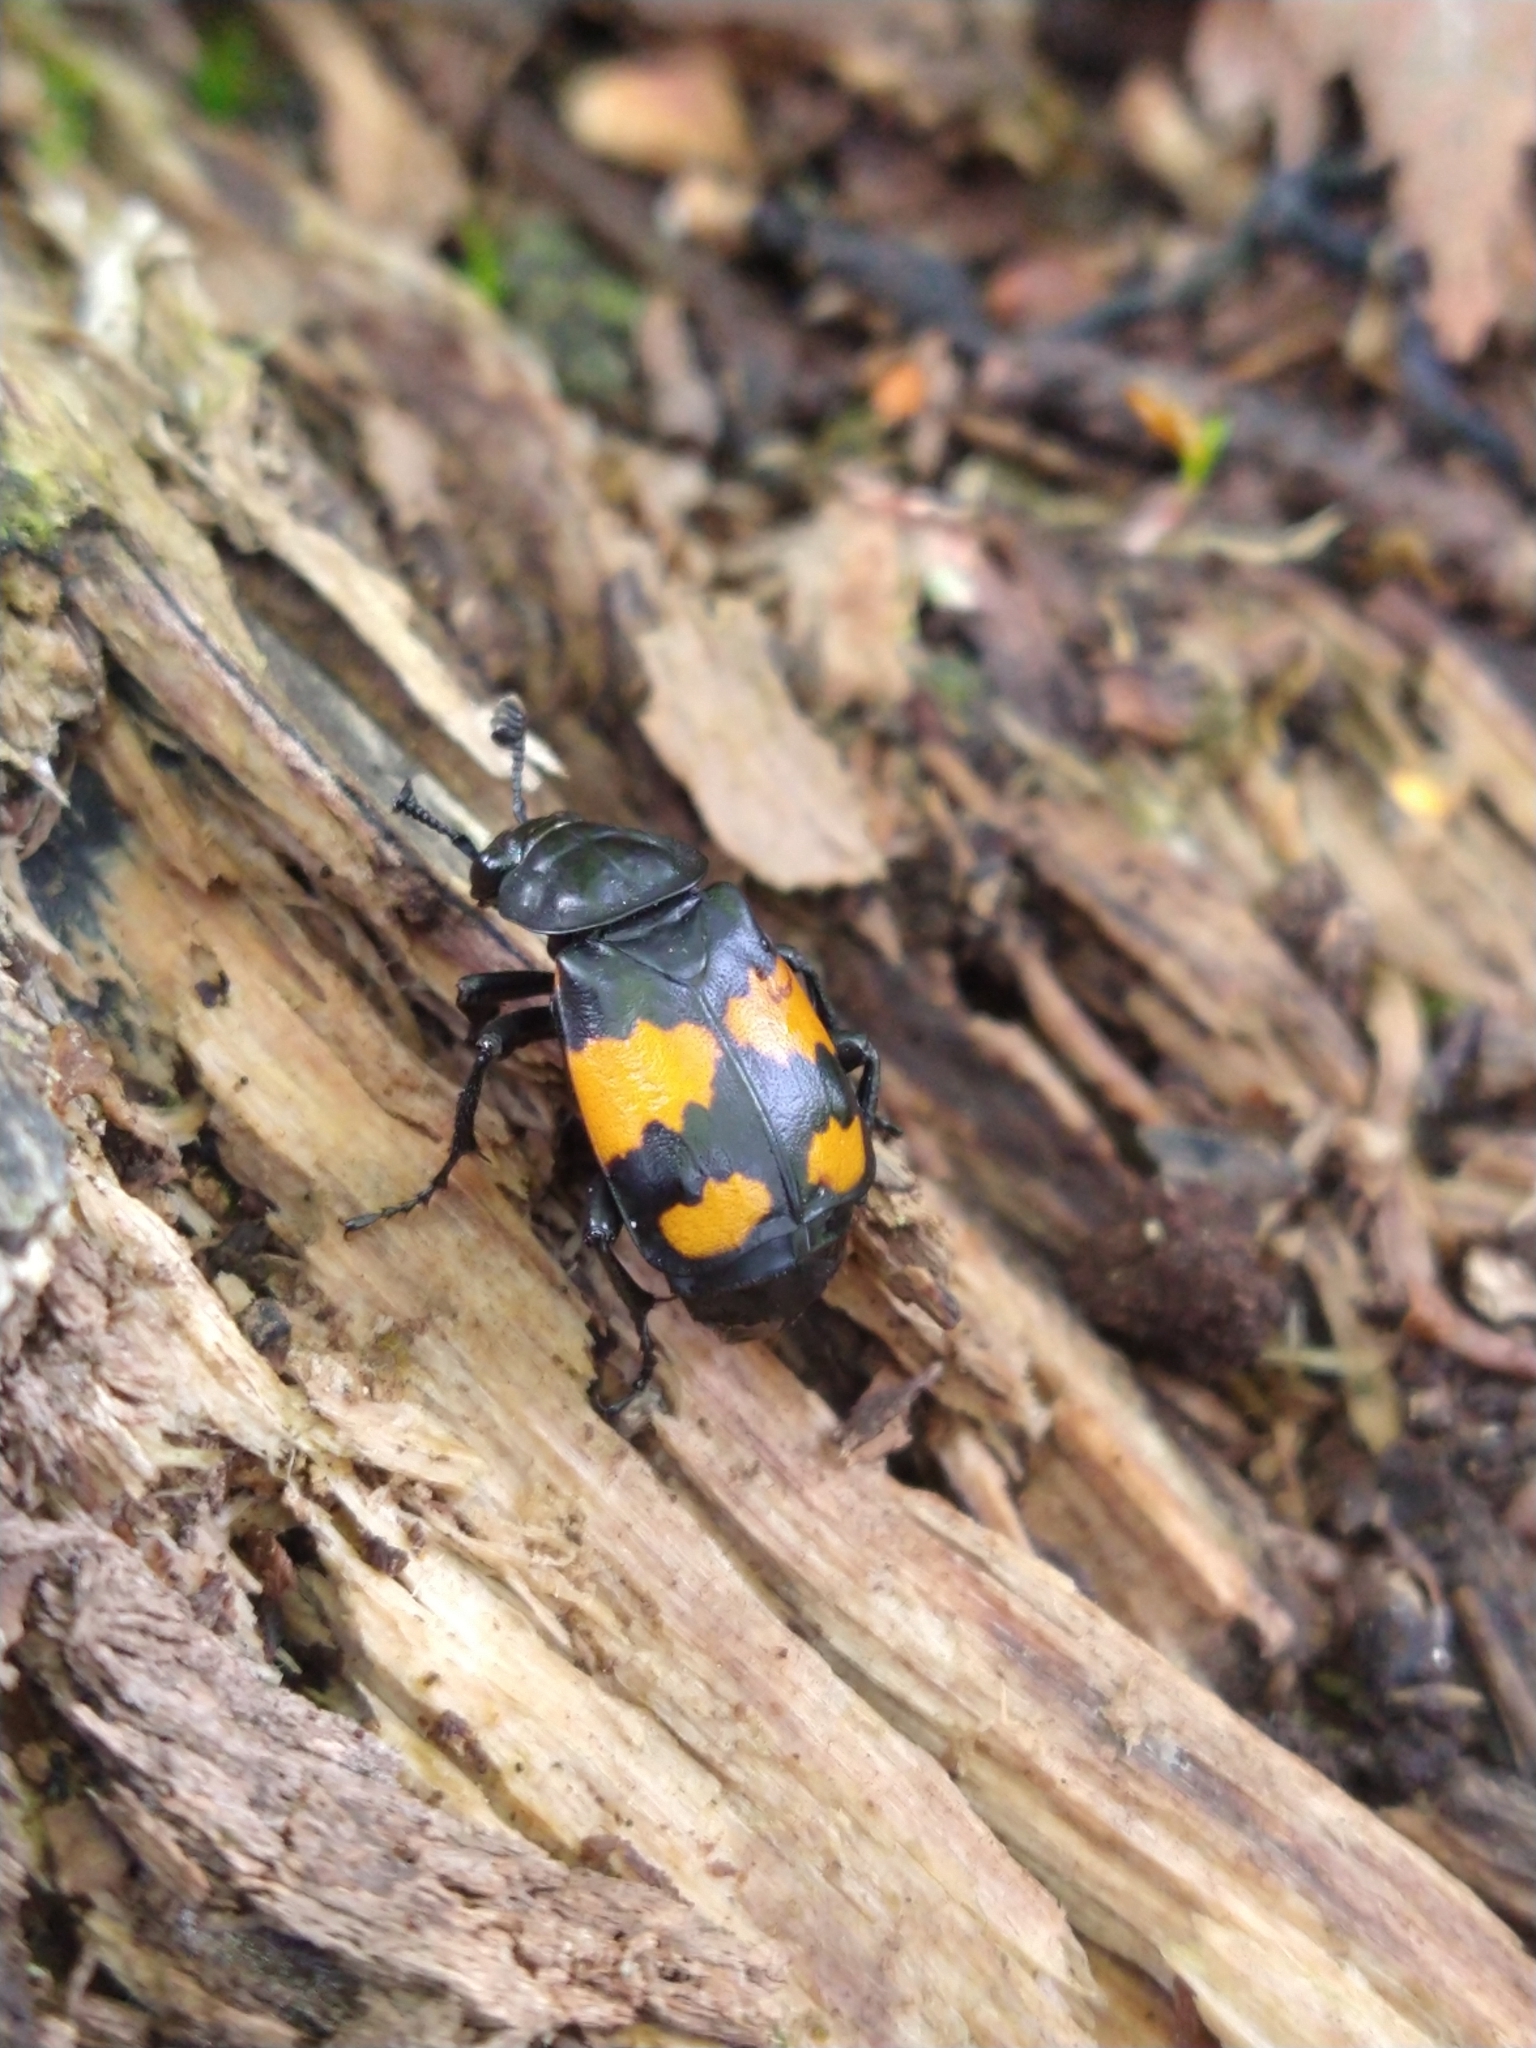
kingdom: Animalia
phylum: Arthropoda
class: Insecta
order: Coleoptera
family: Staphylinidae
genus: Nicrophorus
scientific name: Nicrophorus vespilloides
